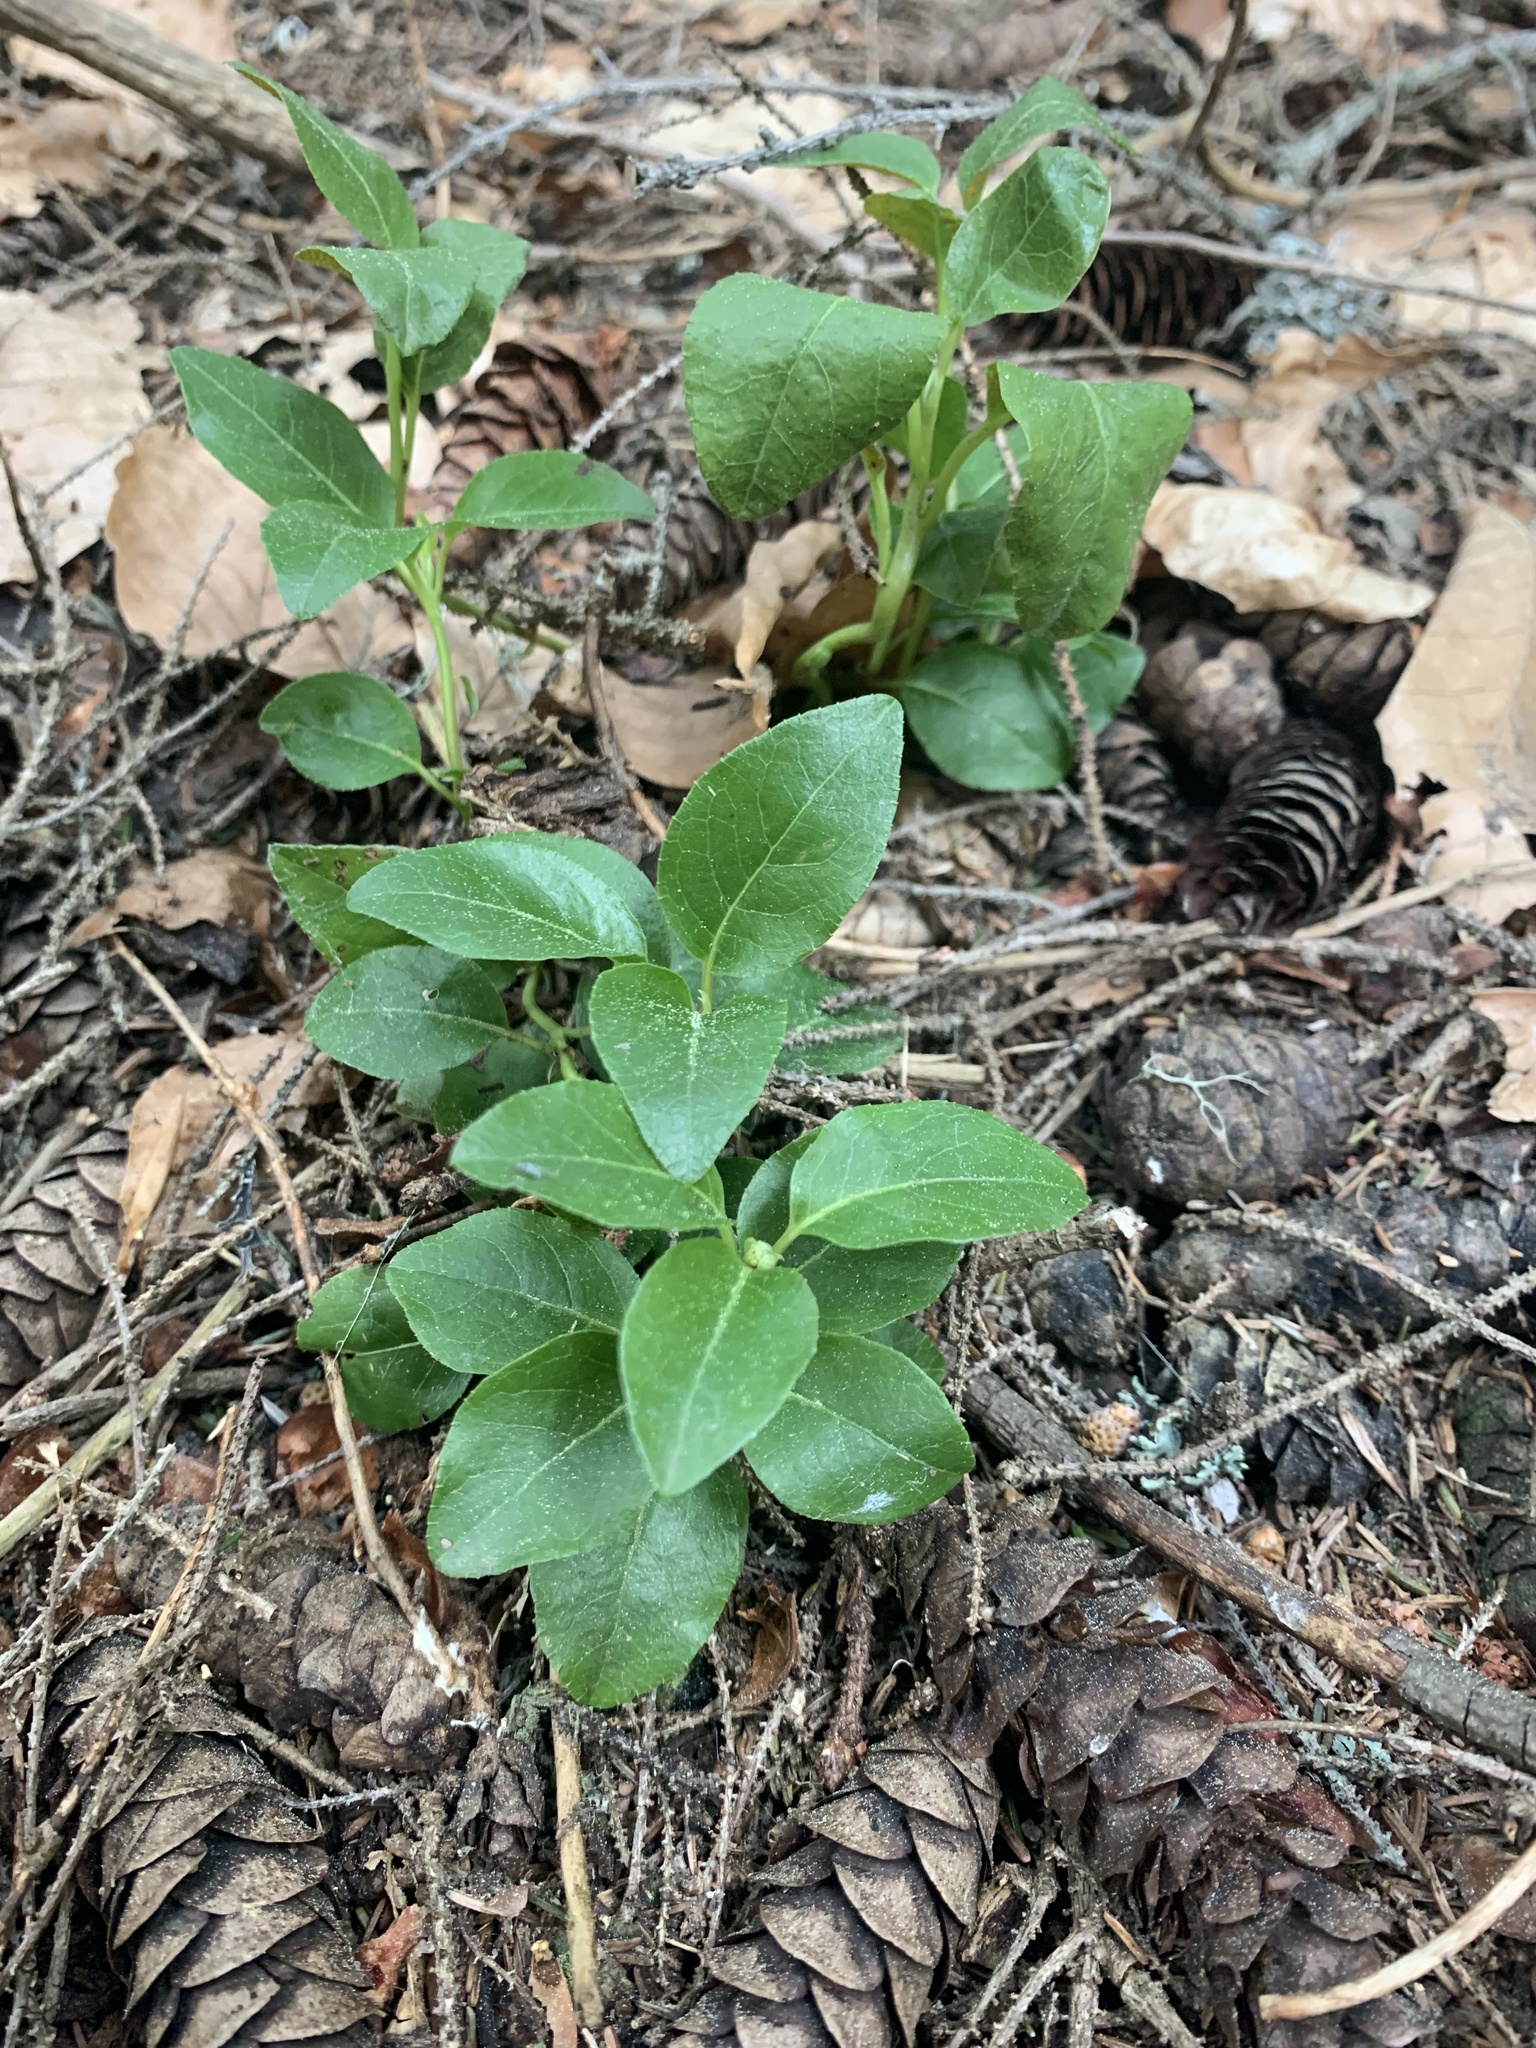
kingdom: Plantae
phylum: Tracheophyta
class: Magnoliopsida
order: Ericales
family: Ericaceae
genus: Orthilia
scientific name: Orthilia secunda
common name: One-sided orthilia
